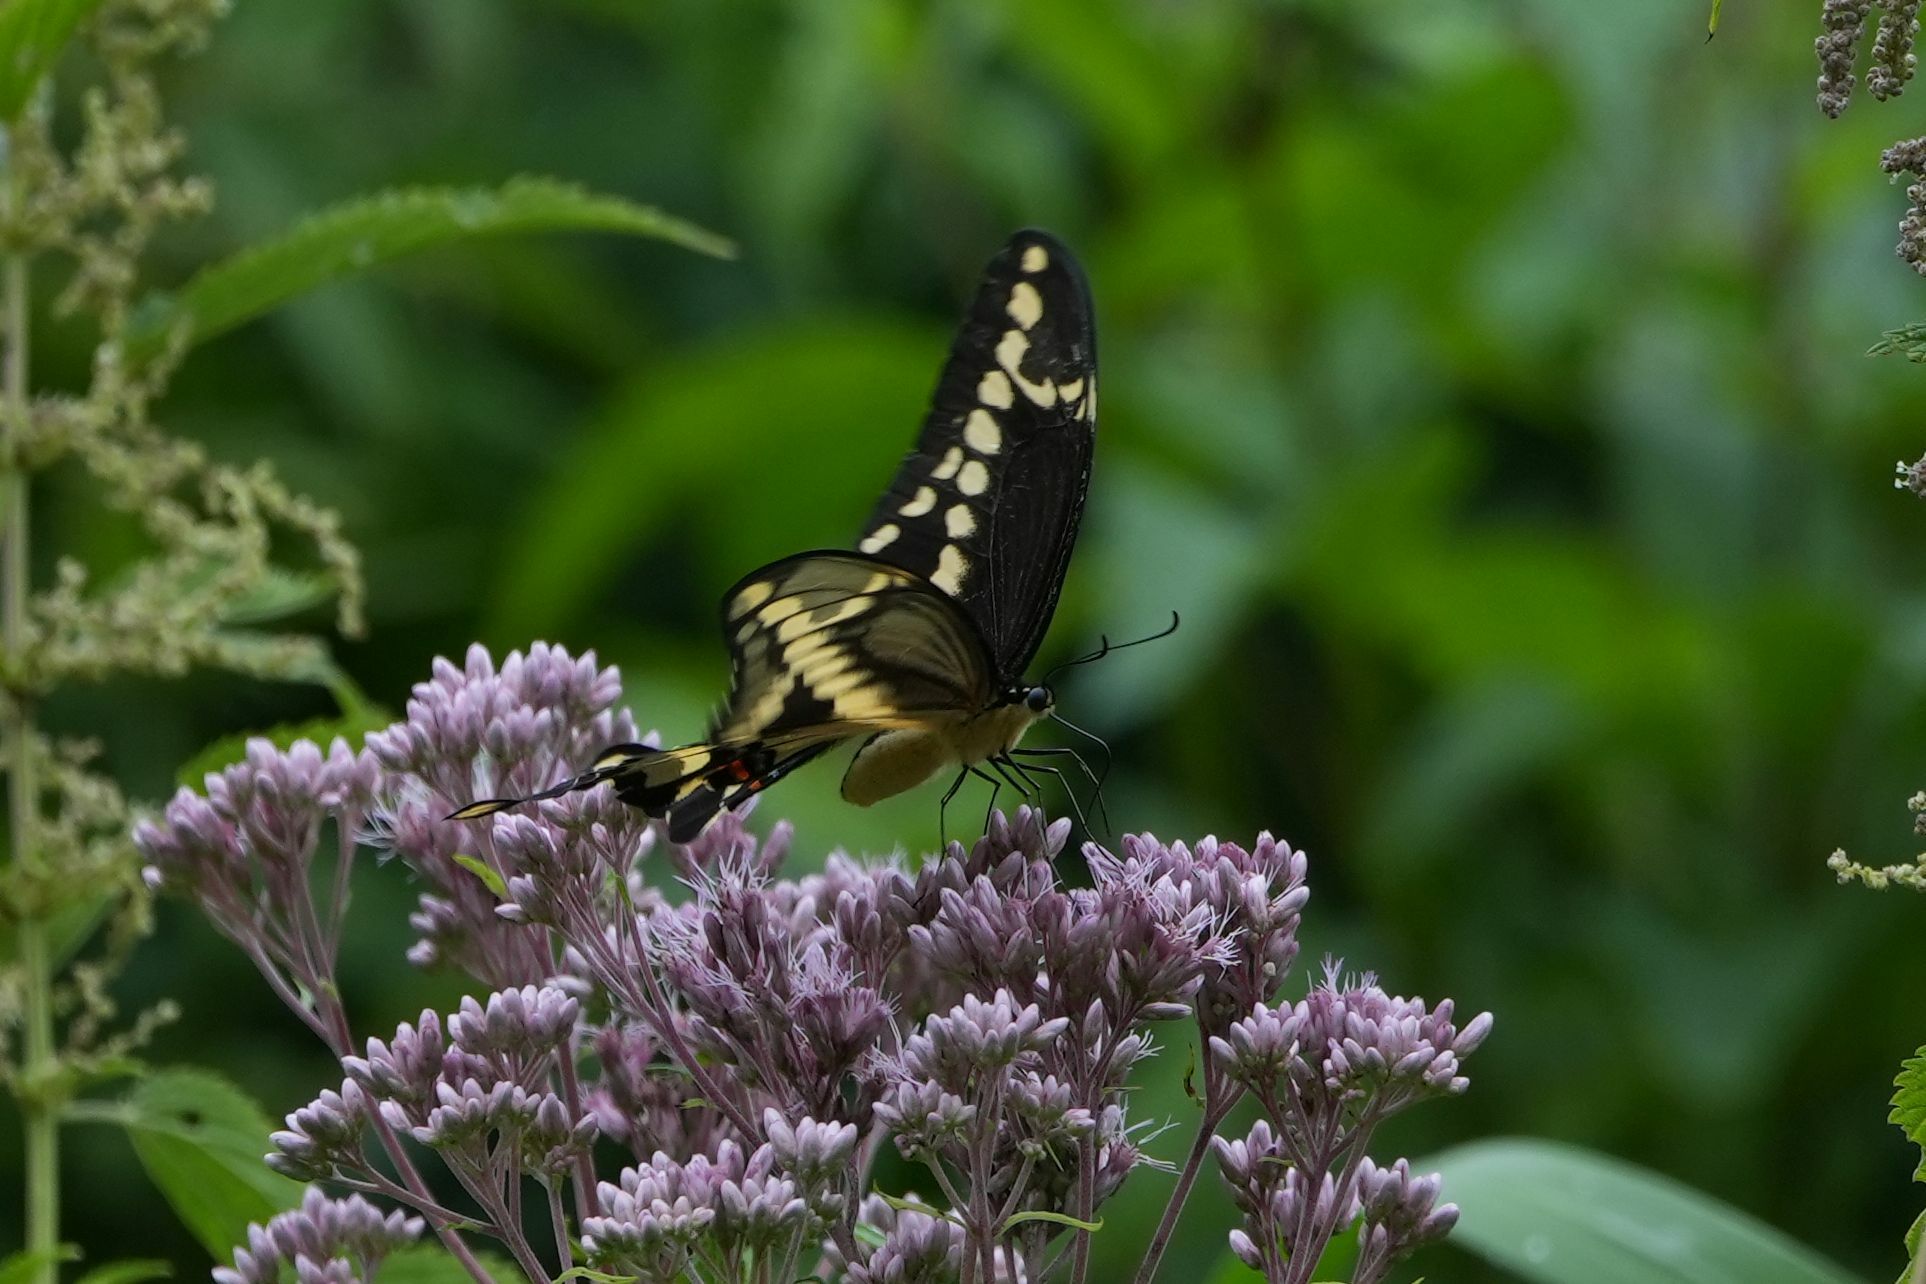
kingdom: Animalia
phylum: Arthropoda
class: Insecta
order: Lepidoptera
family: Papilionidae
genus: Papilio
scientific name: Papilio cresphontes
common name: Giant swallowtail
